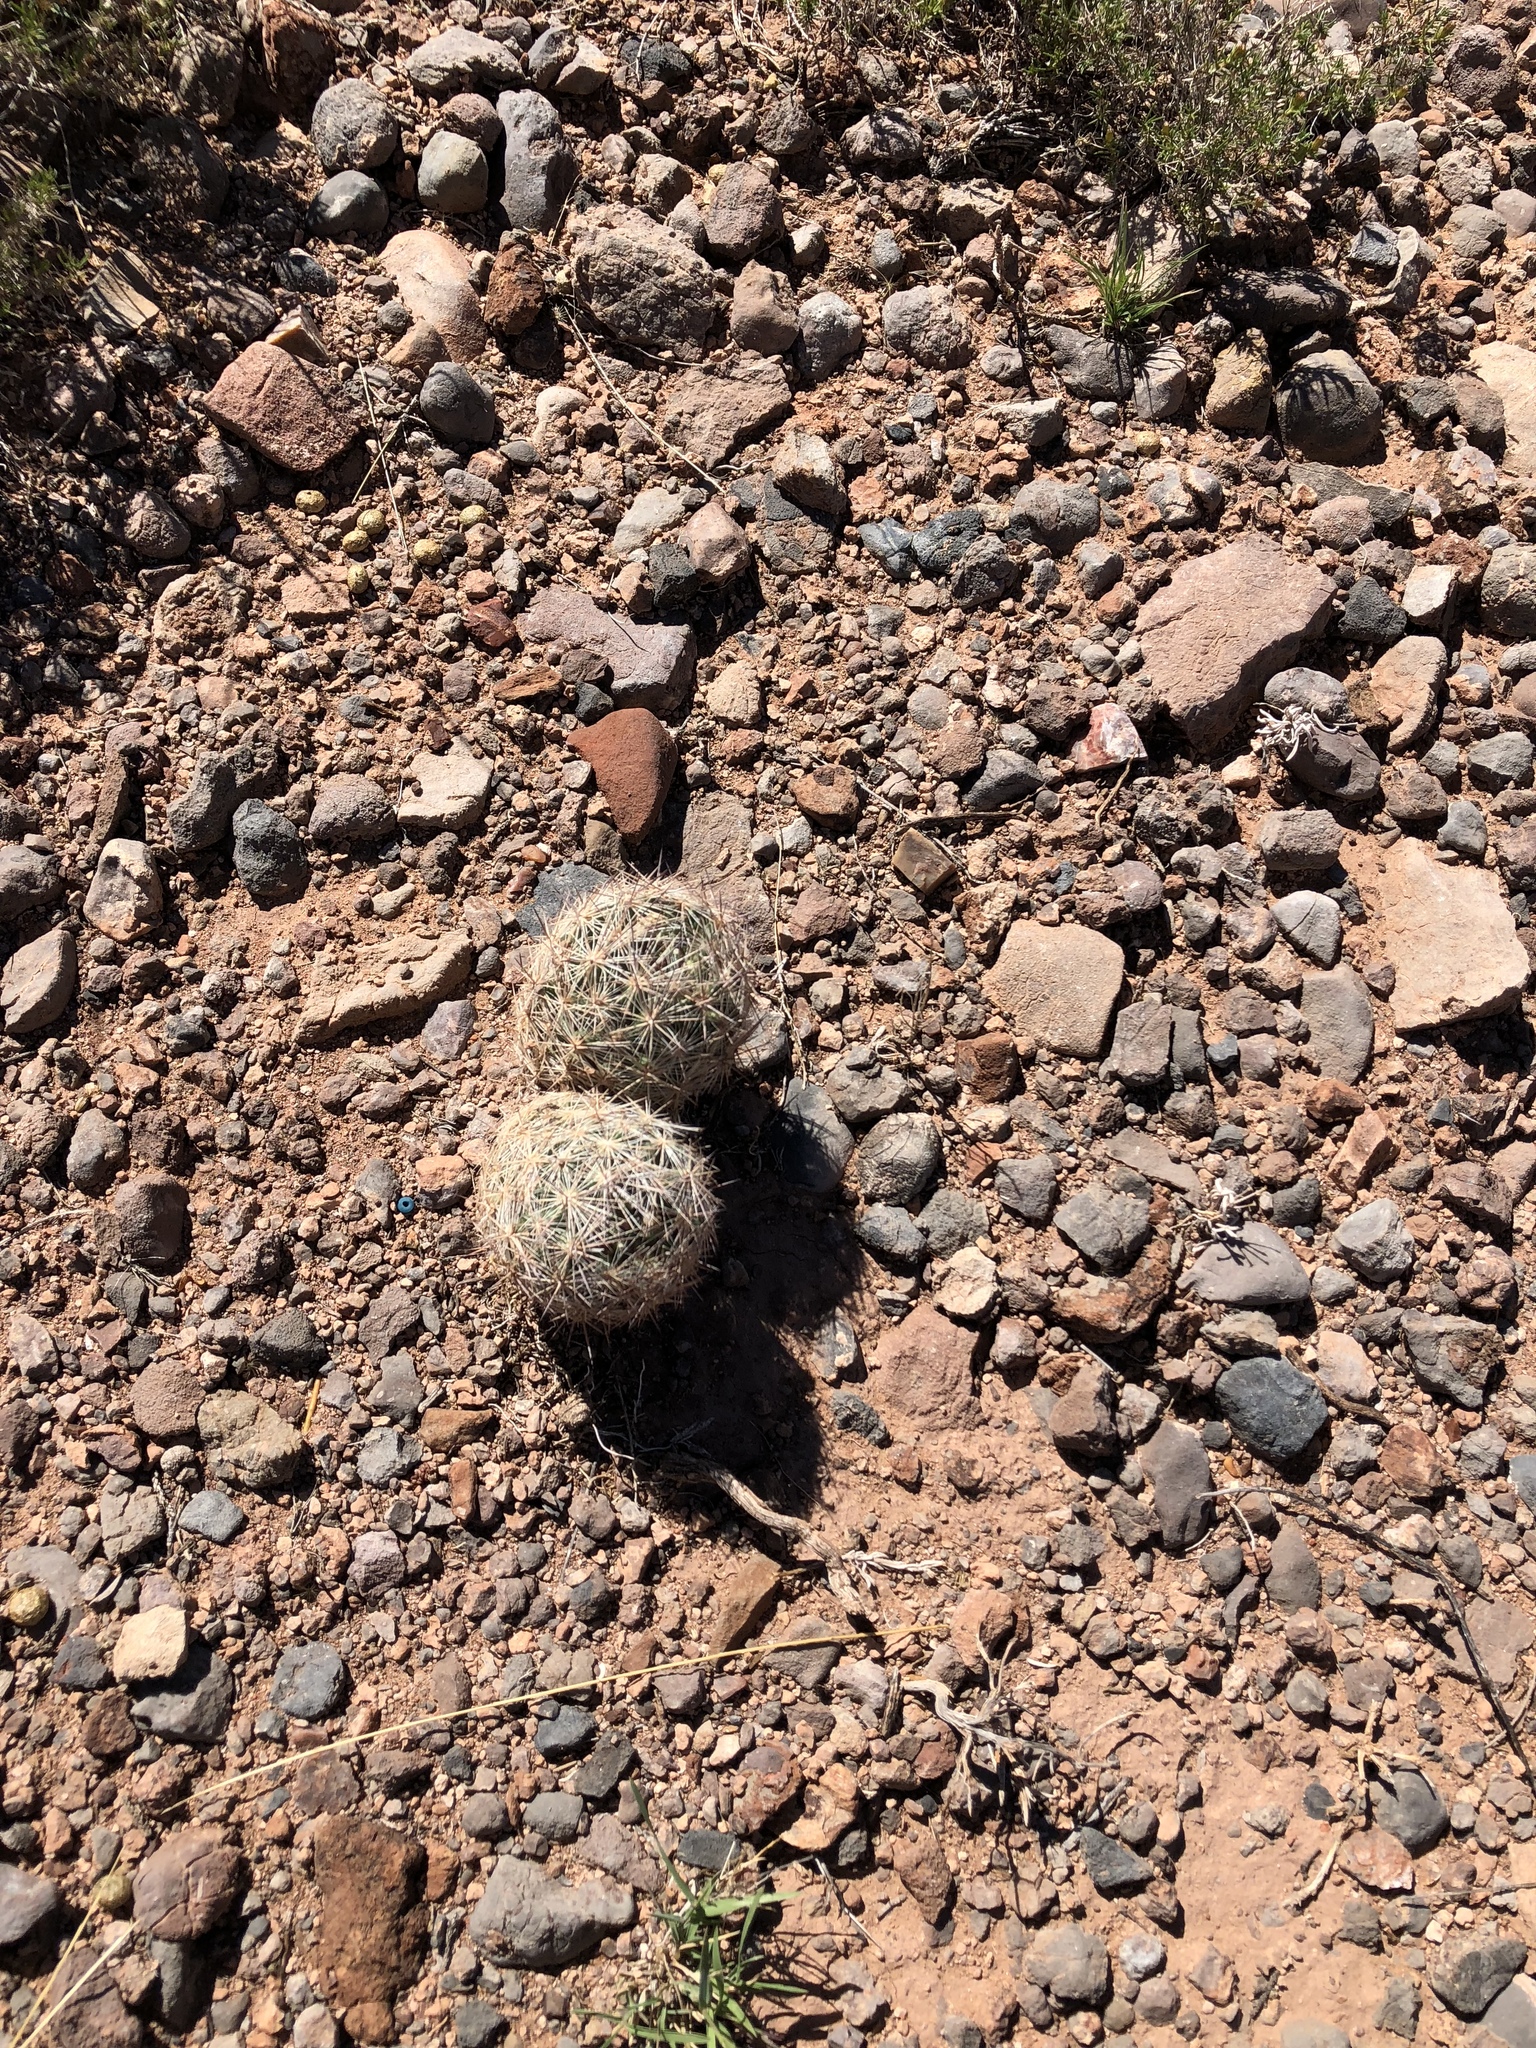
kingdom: Plantae
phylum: Tracheophyta
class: Magnoliopsida
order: Caryophyllales
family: Cactaceae
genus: Pelecyphora
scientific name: Pelecyphora vivipara
